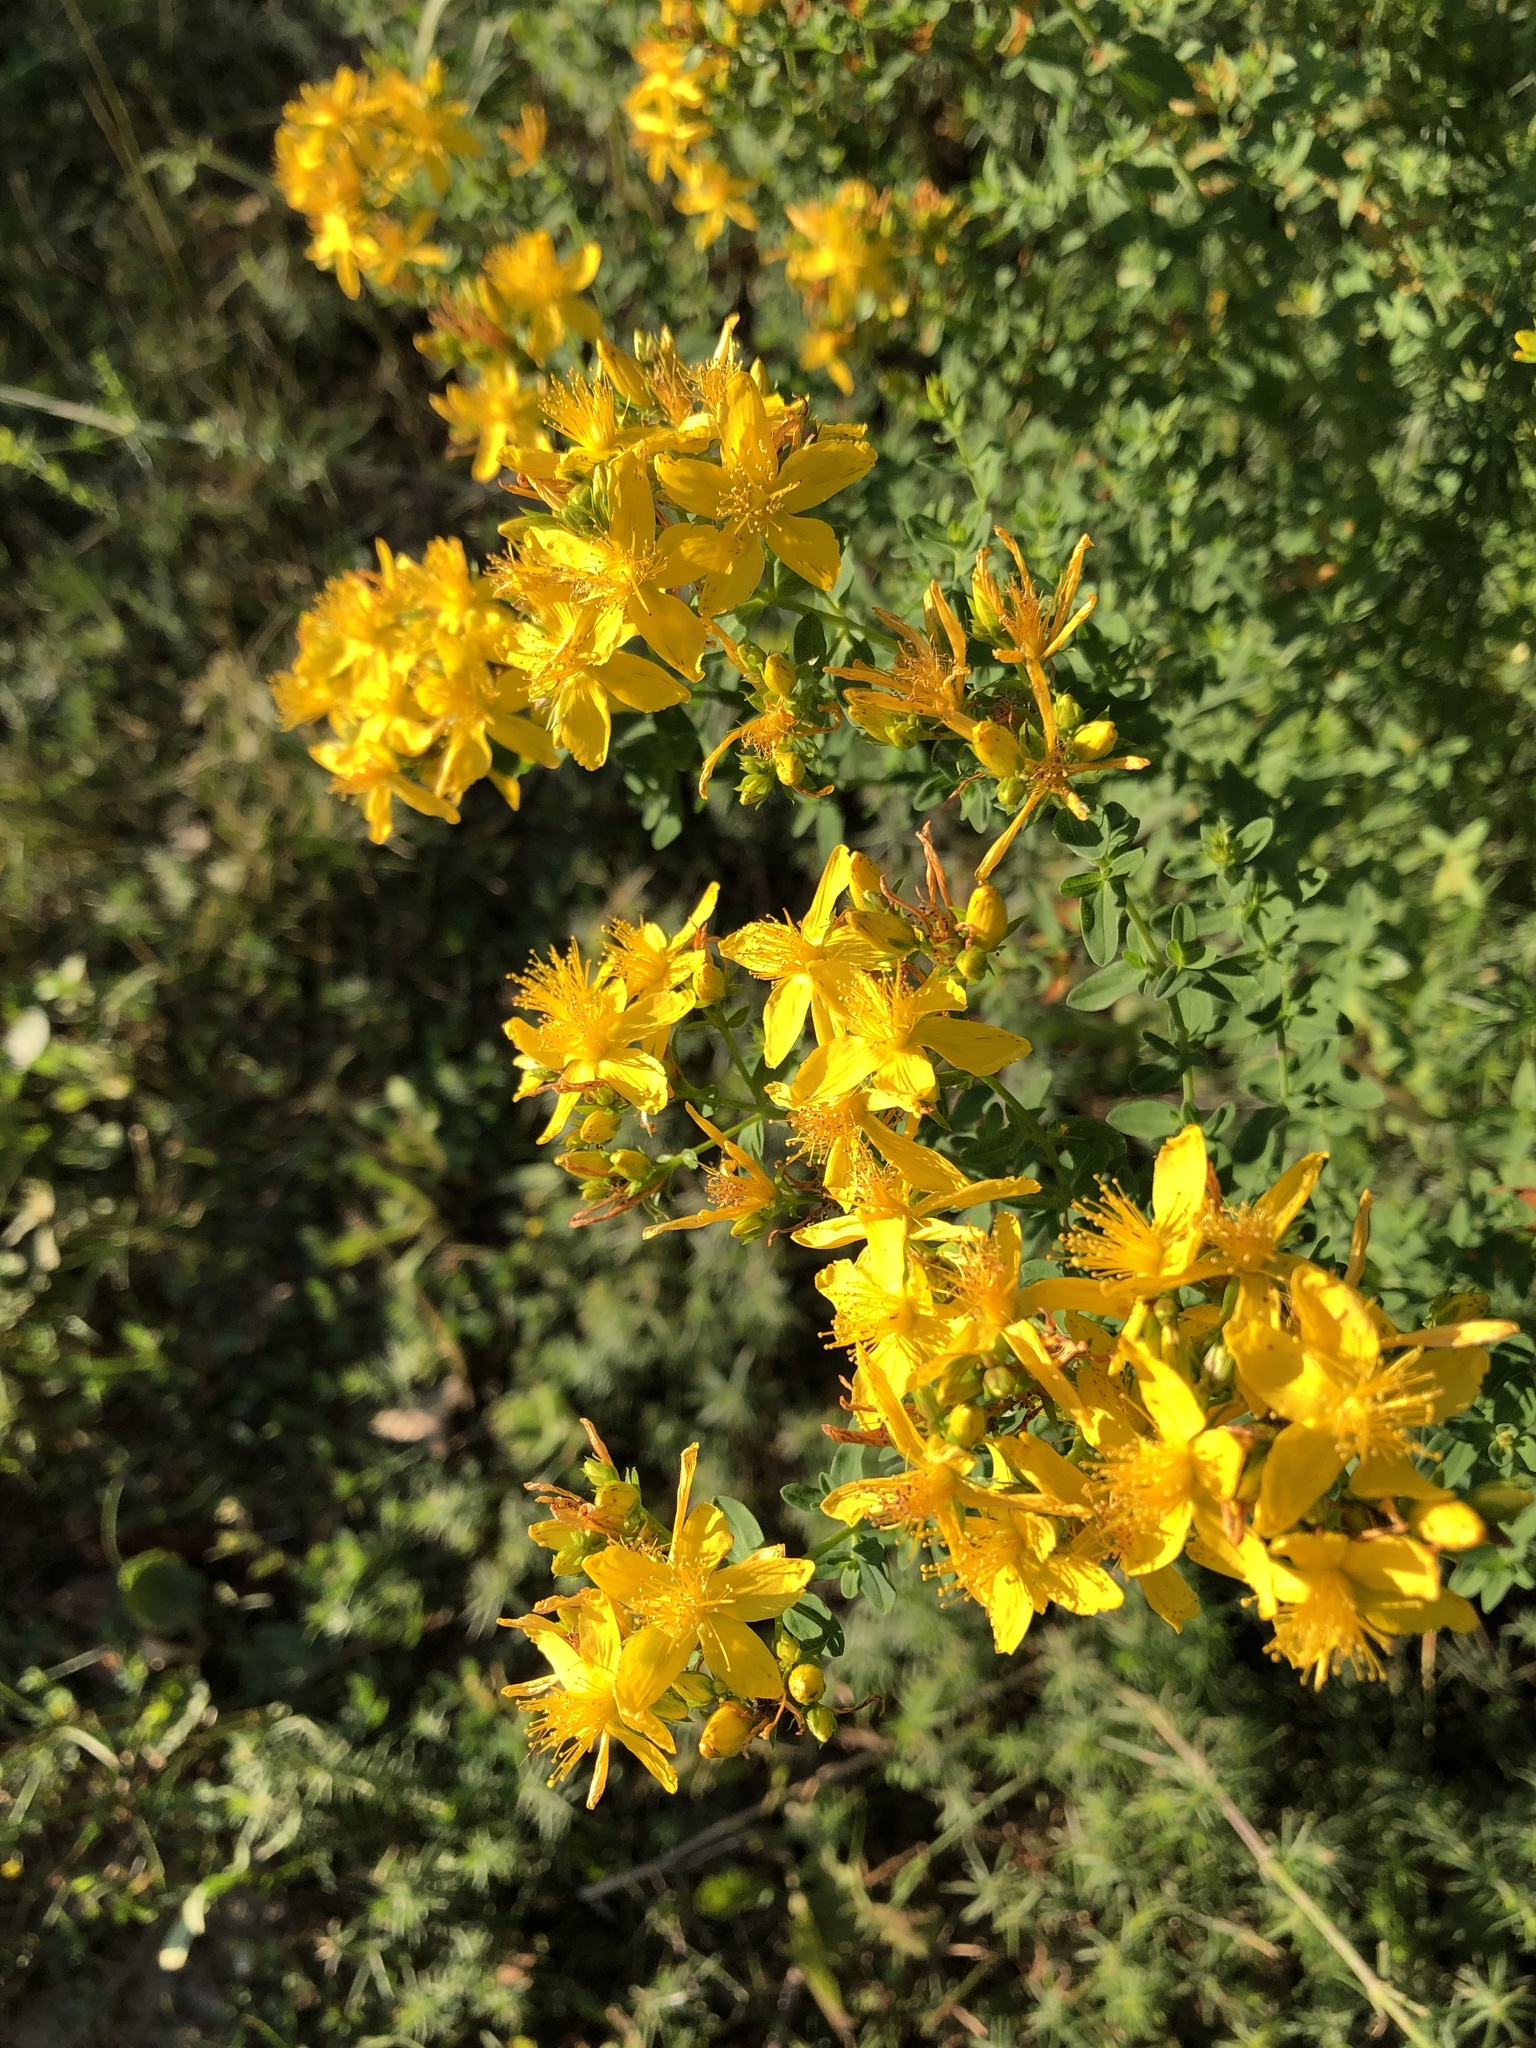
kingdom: Plantae
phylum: Tracheophyta
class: Magnoliopsida
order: Malpighiales
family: Hypericaceae
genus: Hypericum
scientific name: Hypericum perforatum
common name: Common st. johnswort
